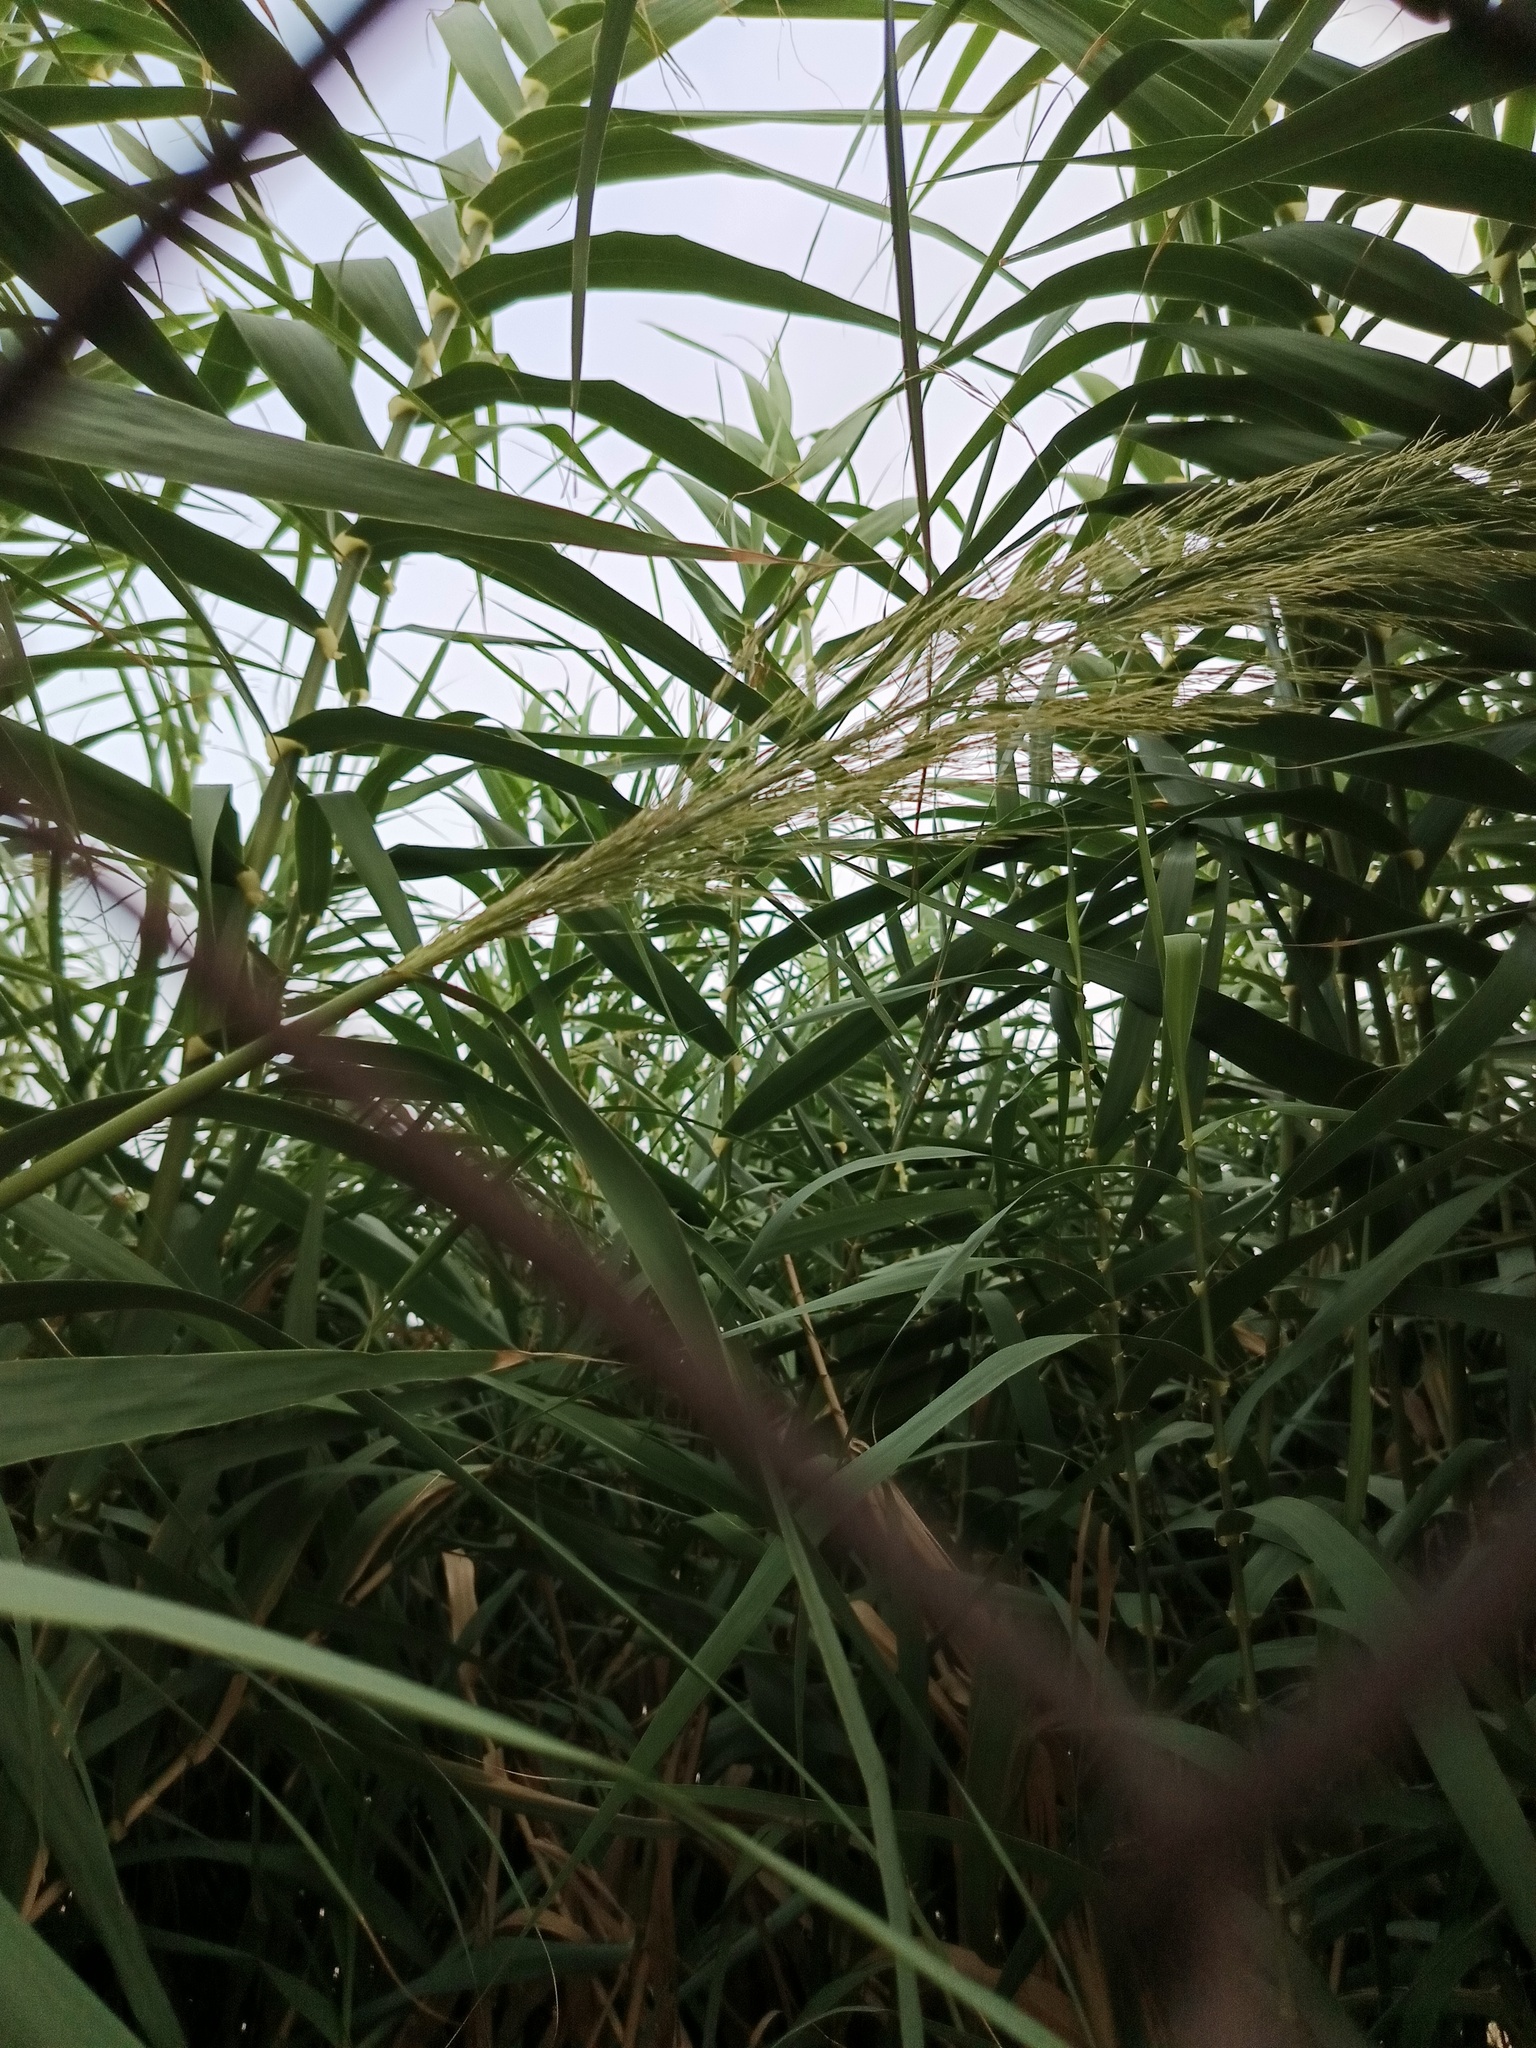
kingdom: Plantae
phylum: Tracheophyta
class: Liliopsida
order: Poales
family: Poaceae
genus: Arundo
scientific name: Arundo donax
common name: Giant reed
